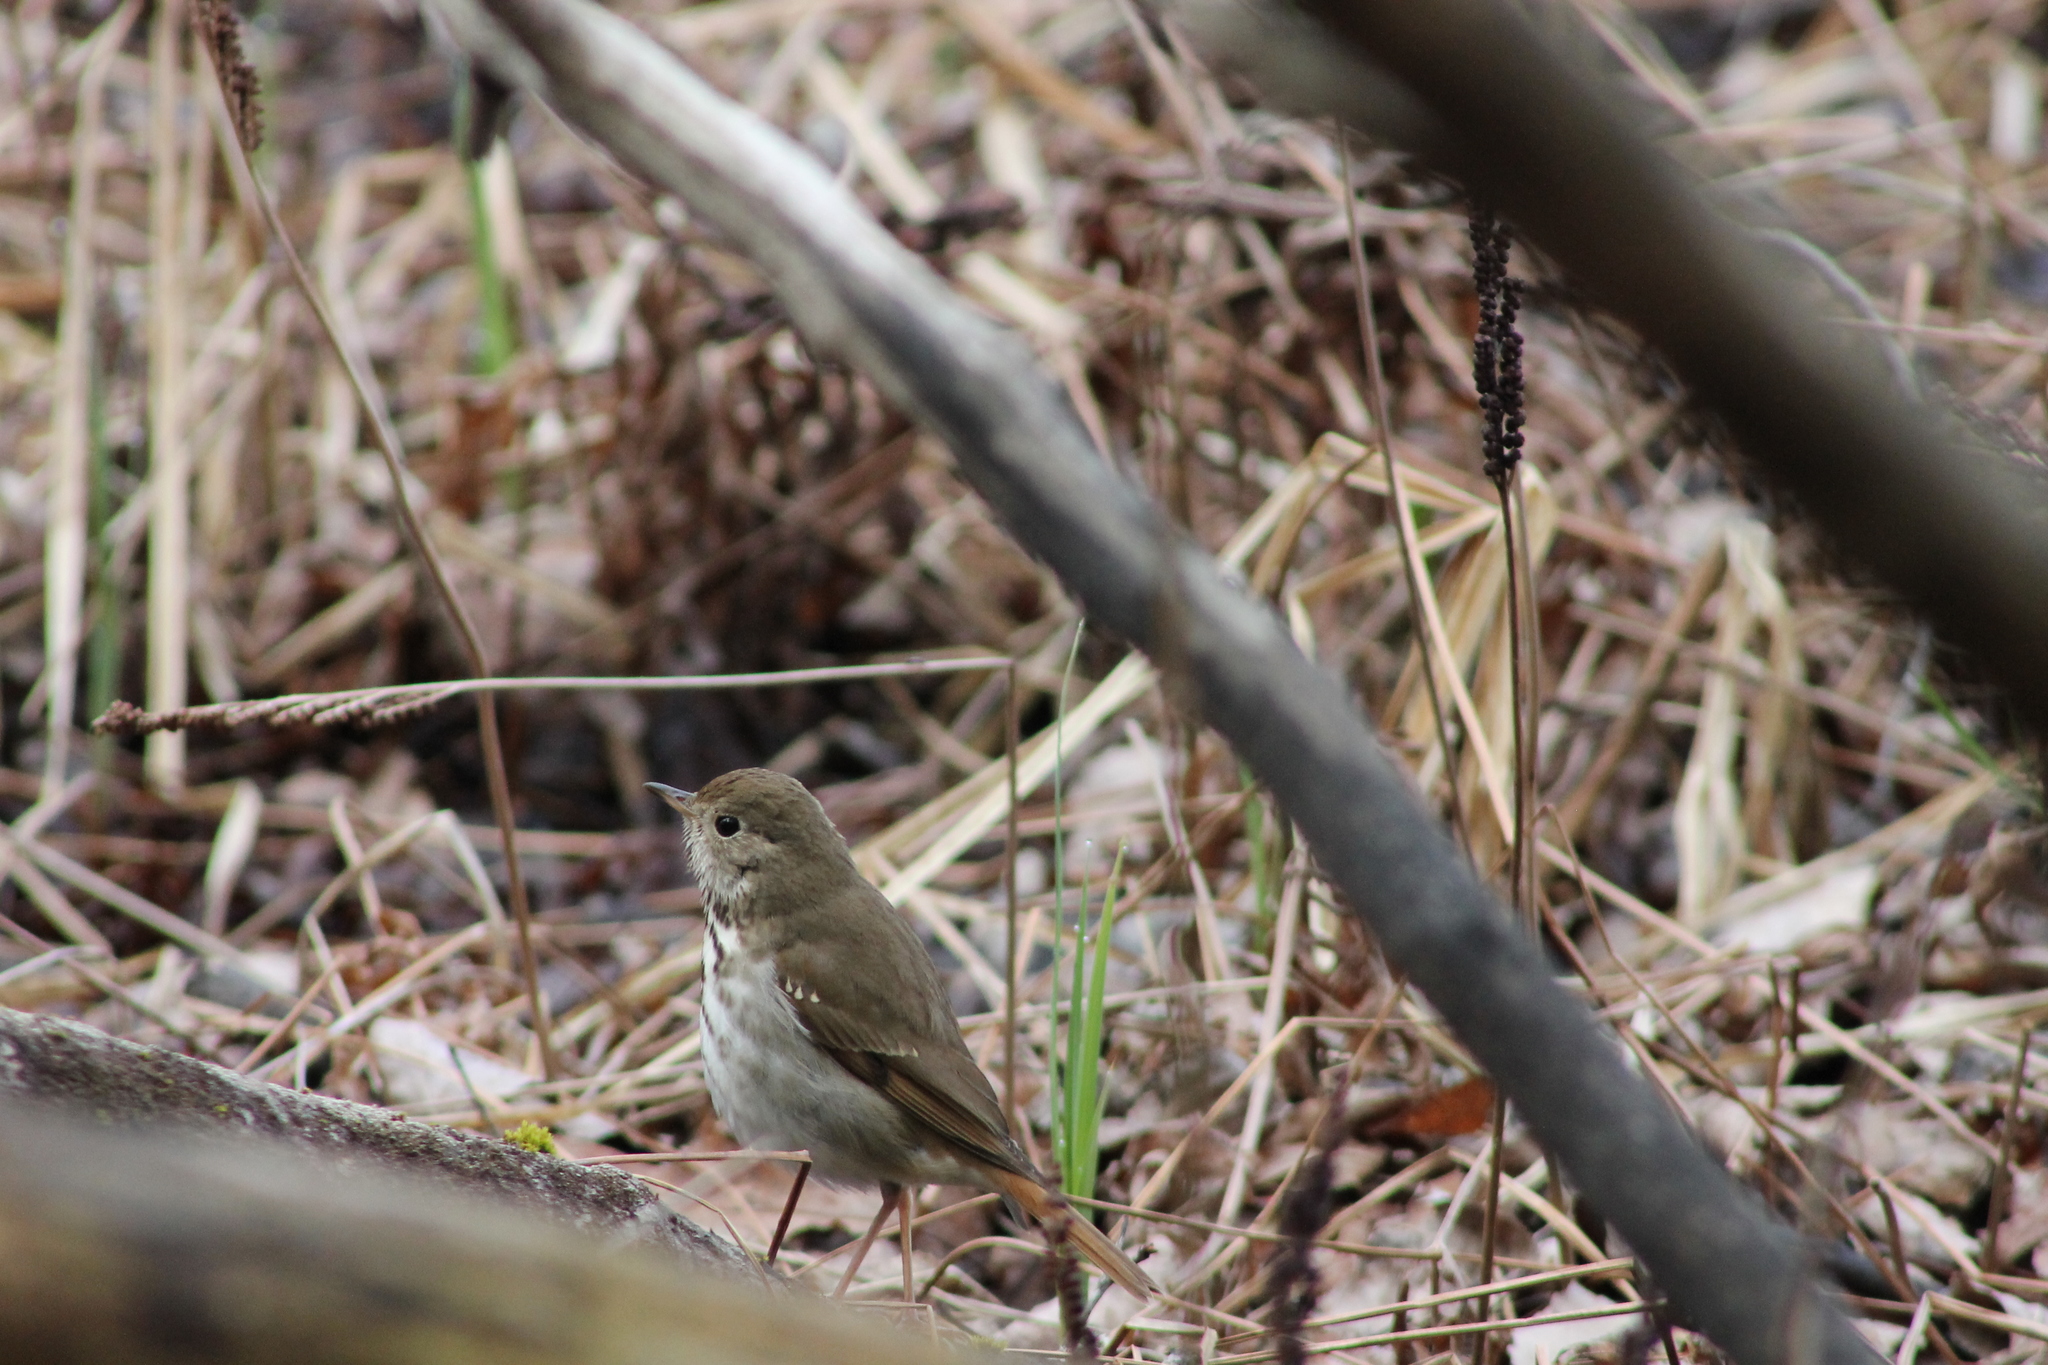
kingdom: Animalia
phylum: Chordata
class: Aves
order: Passeriformes
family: Turdidae
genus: Catharus
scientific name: Catharus guttatus
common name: Hermit thrush
